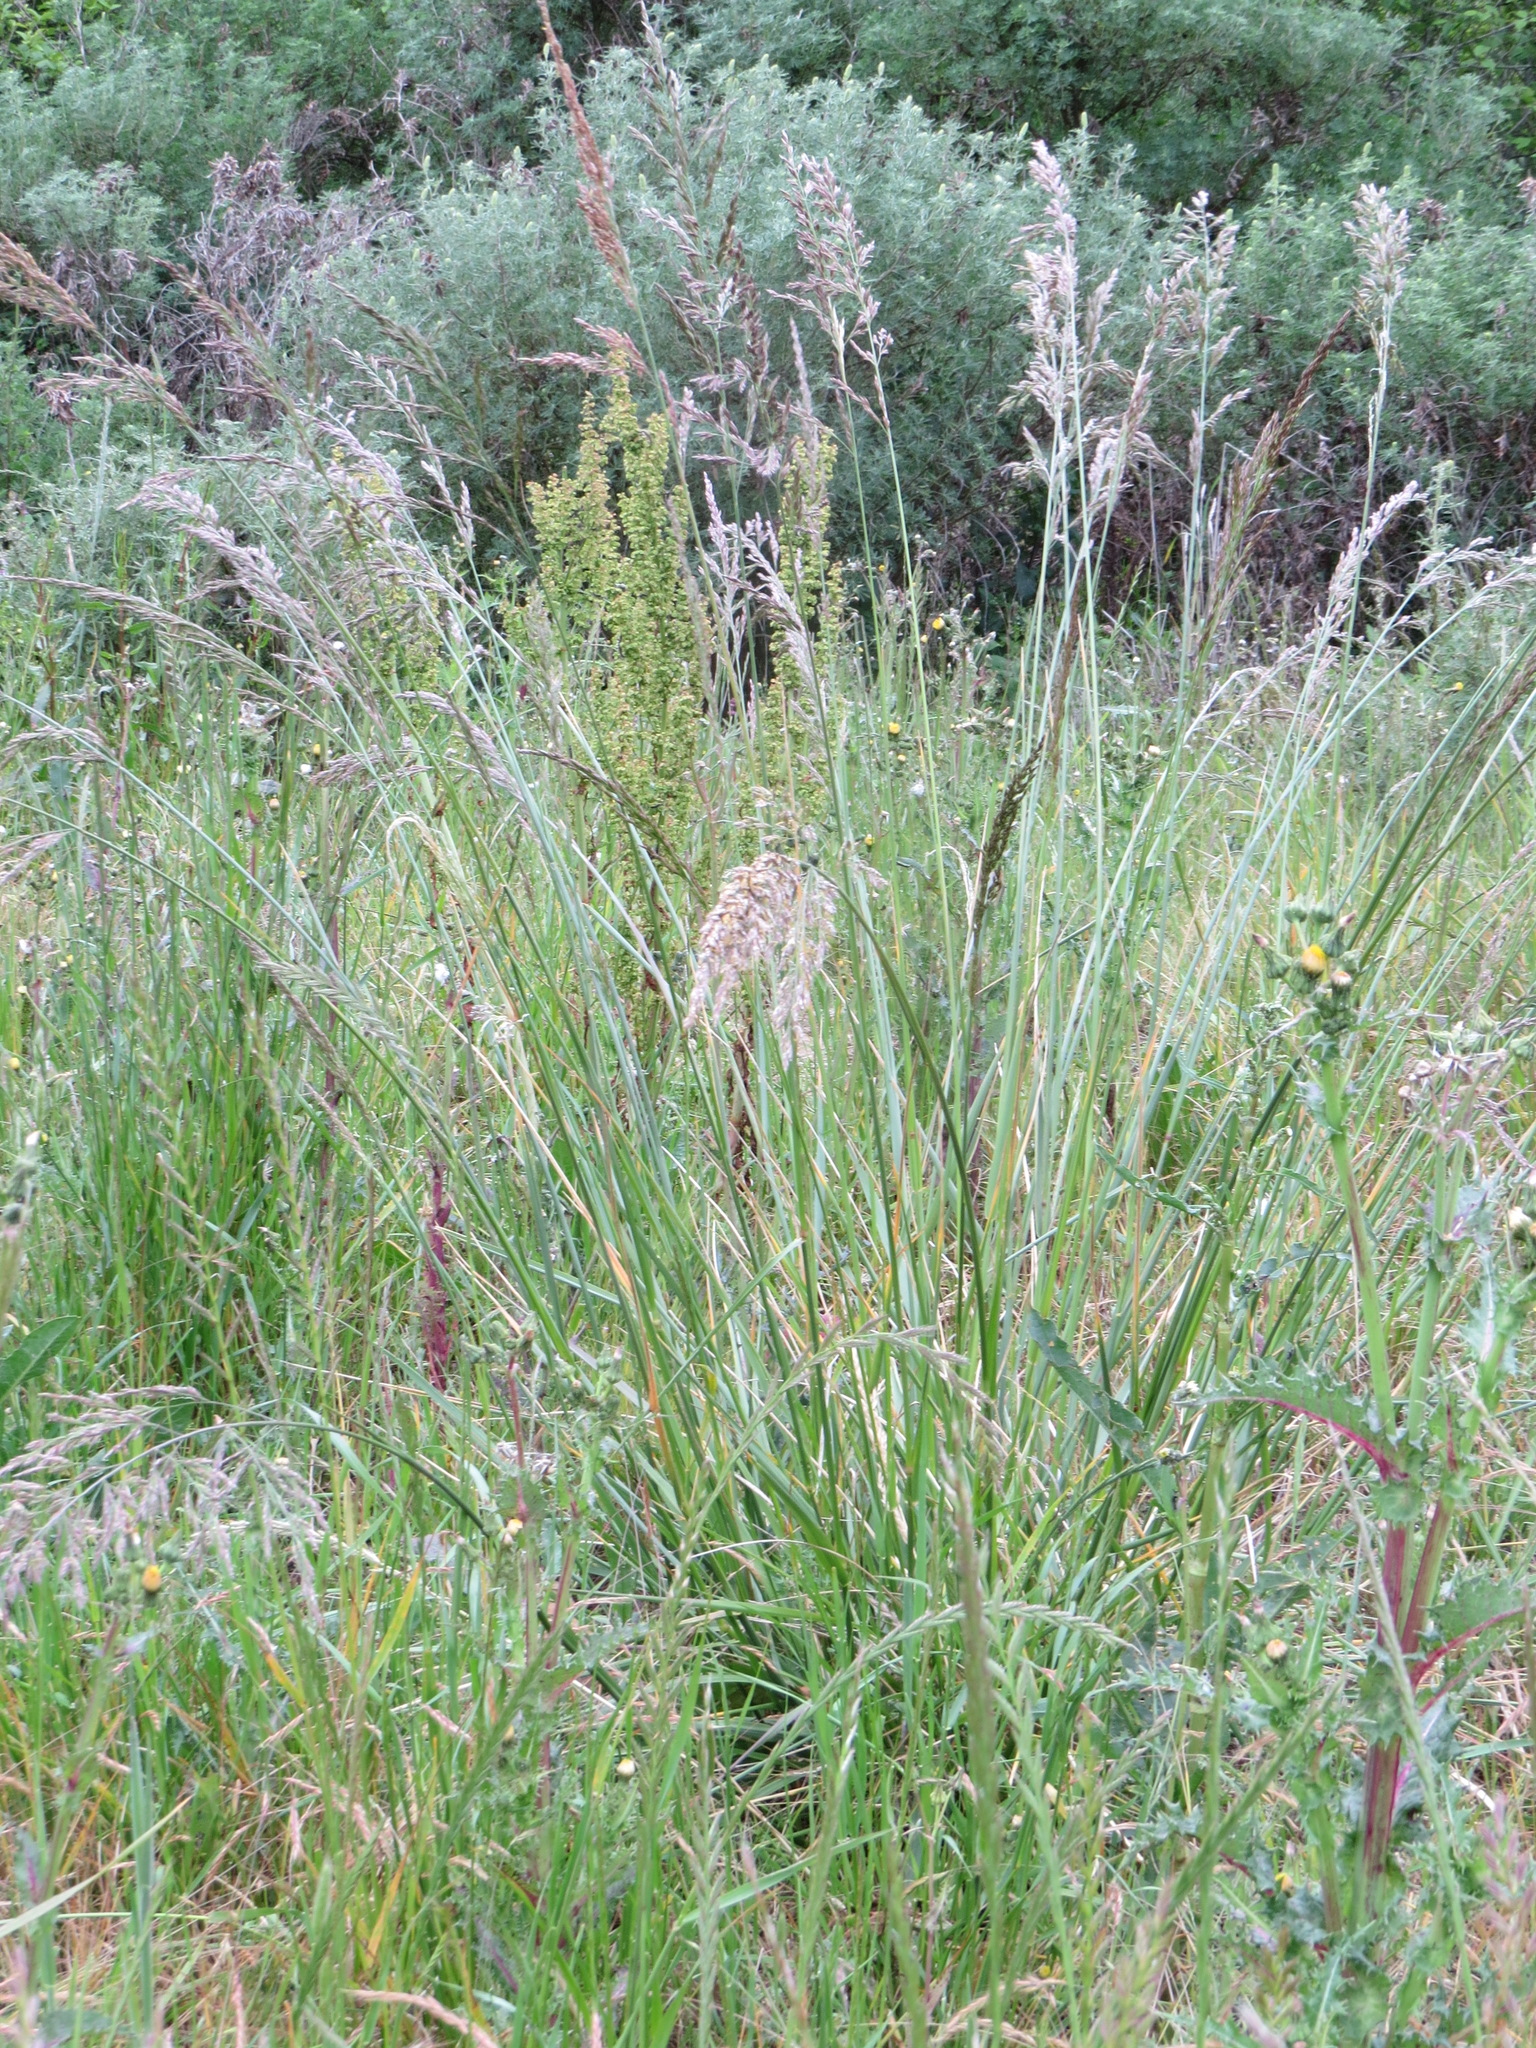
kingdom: Plantae
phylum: Tracheophyta
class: Liliopsida
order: Poales
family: Poaceae
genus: Lolium
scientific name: Lolium arundinaceum
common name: Reed fescue
